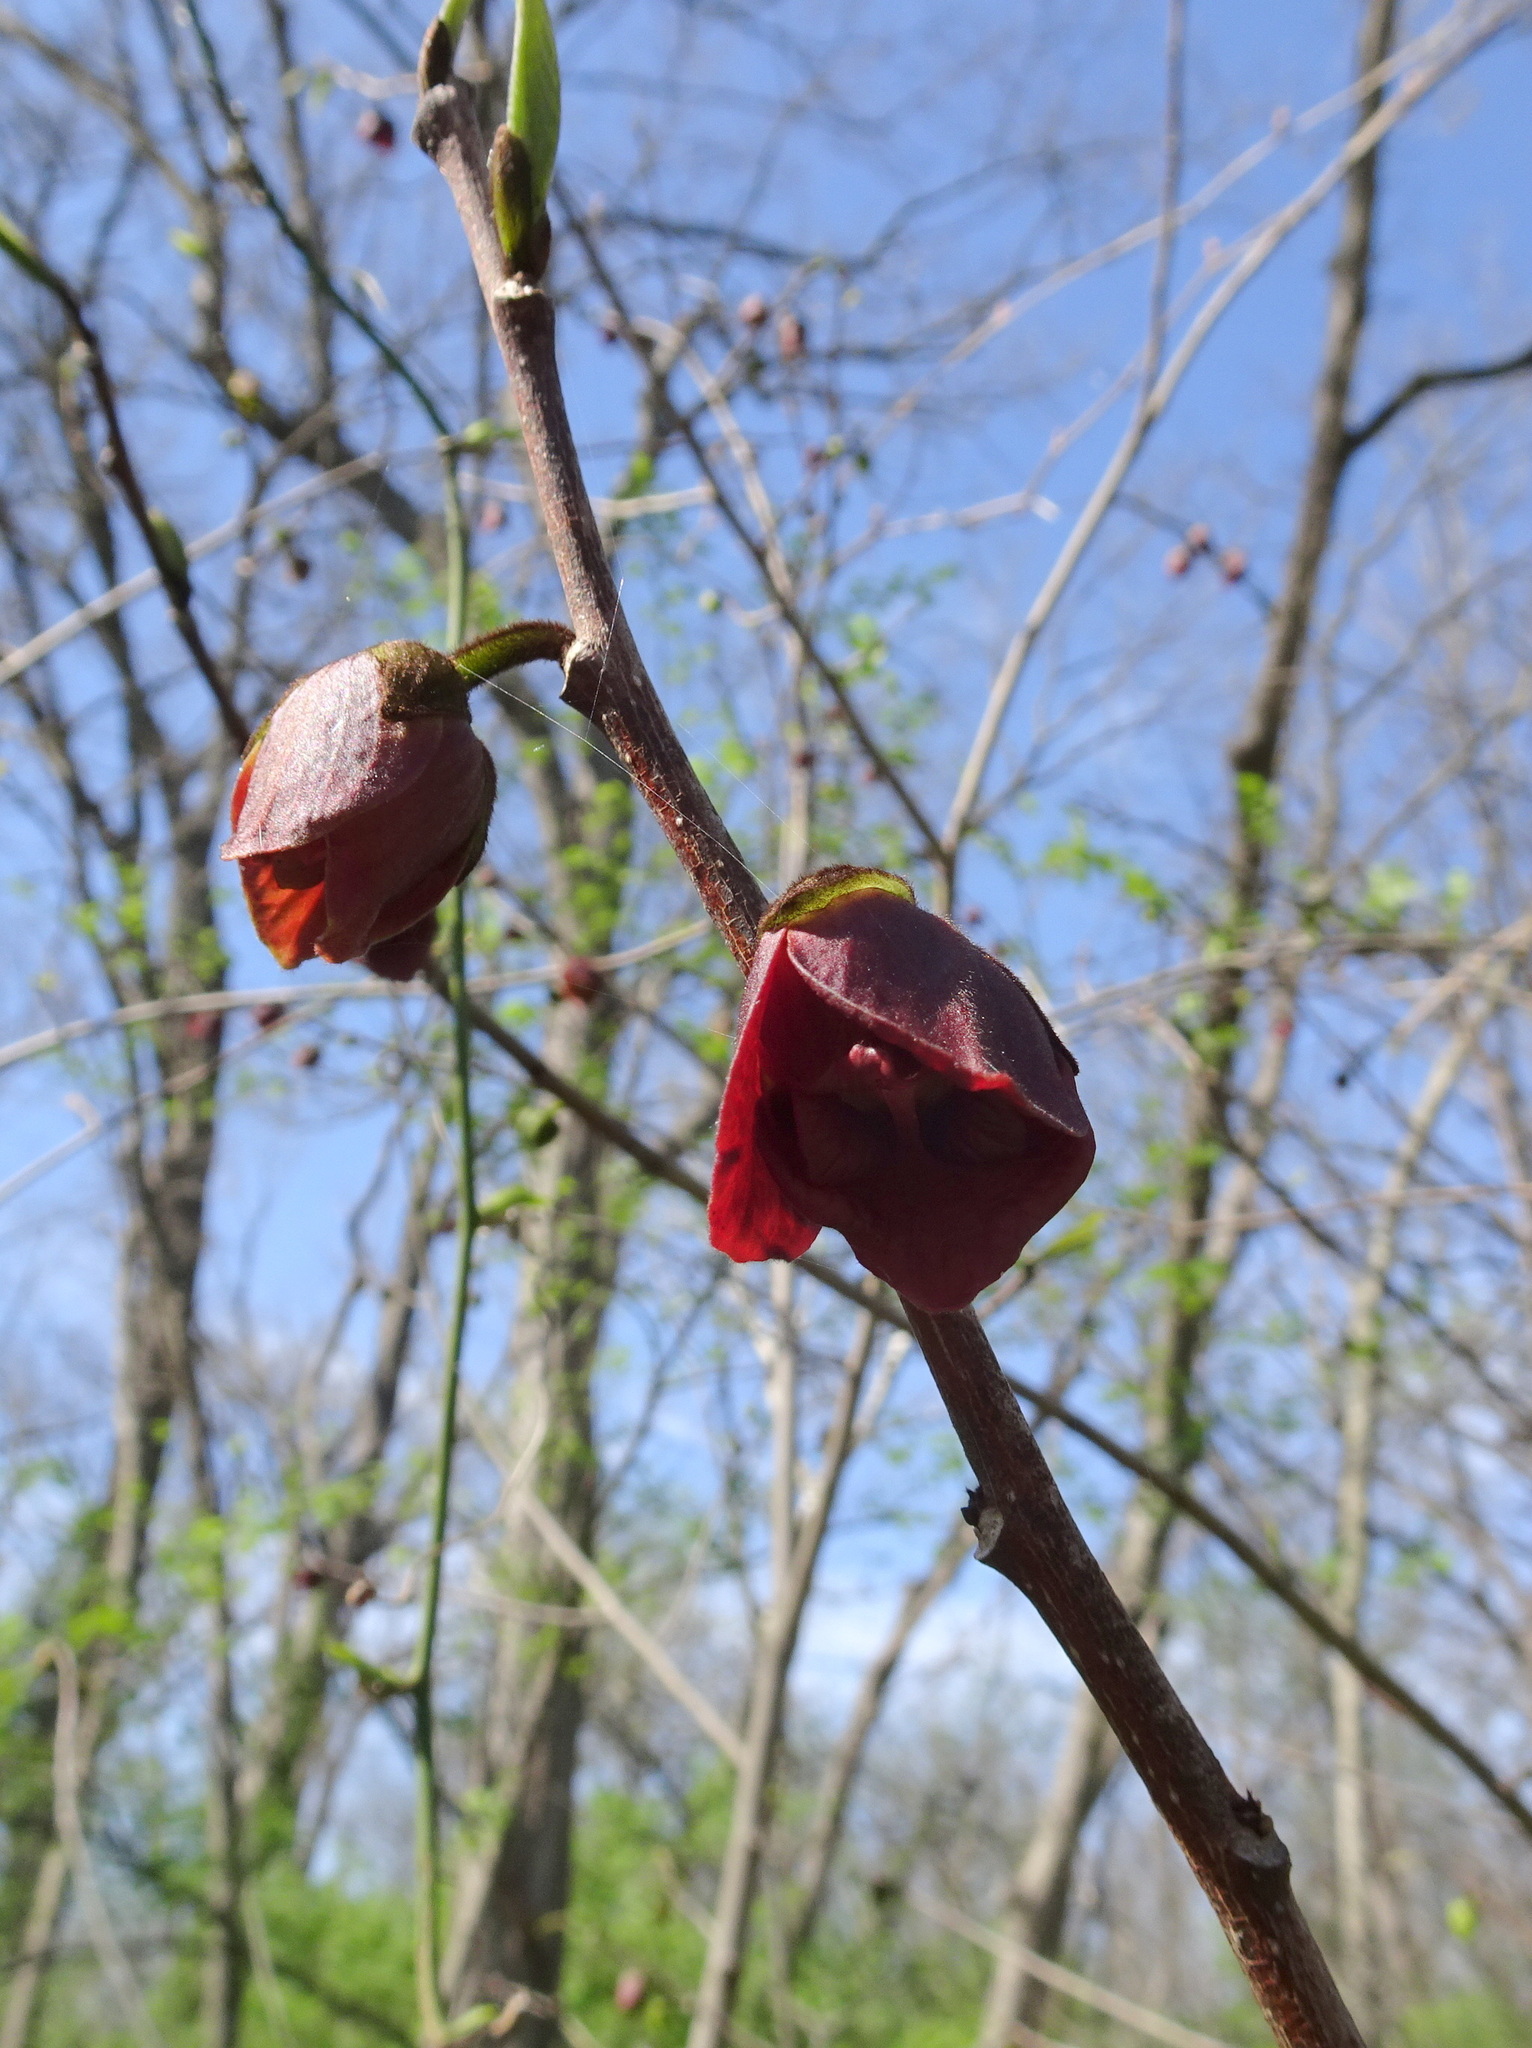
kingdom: Plantae
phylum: Tracheophyta
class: Magnoliopsida
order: Magnoliales
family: Annonaceae
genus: Asimina
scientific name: Asimina triloba
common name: Dog-banana
